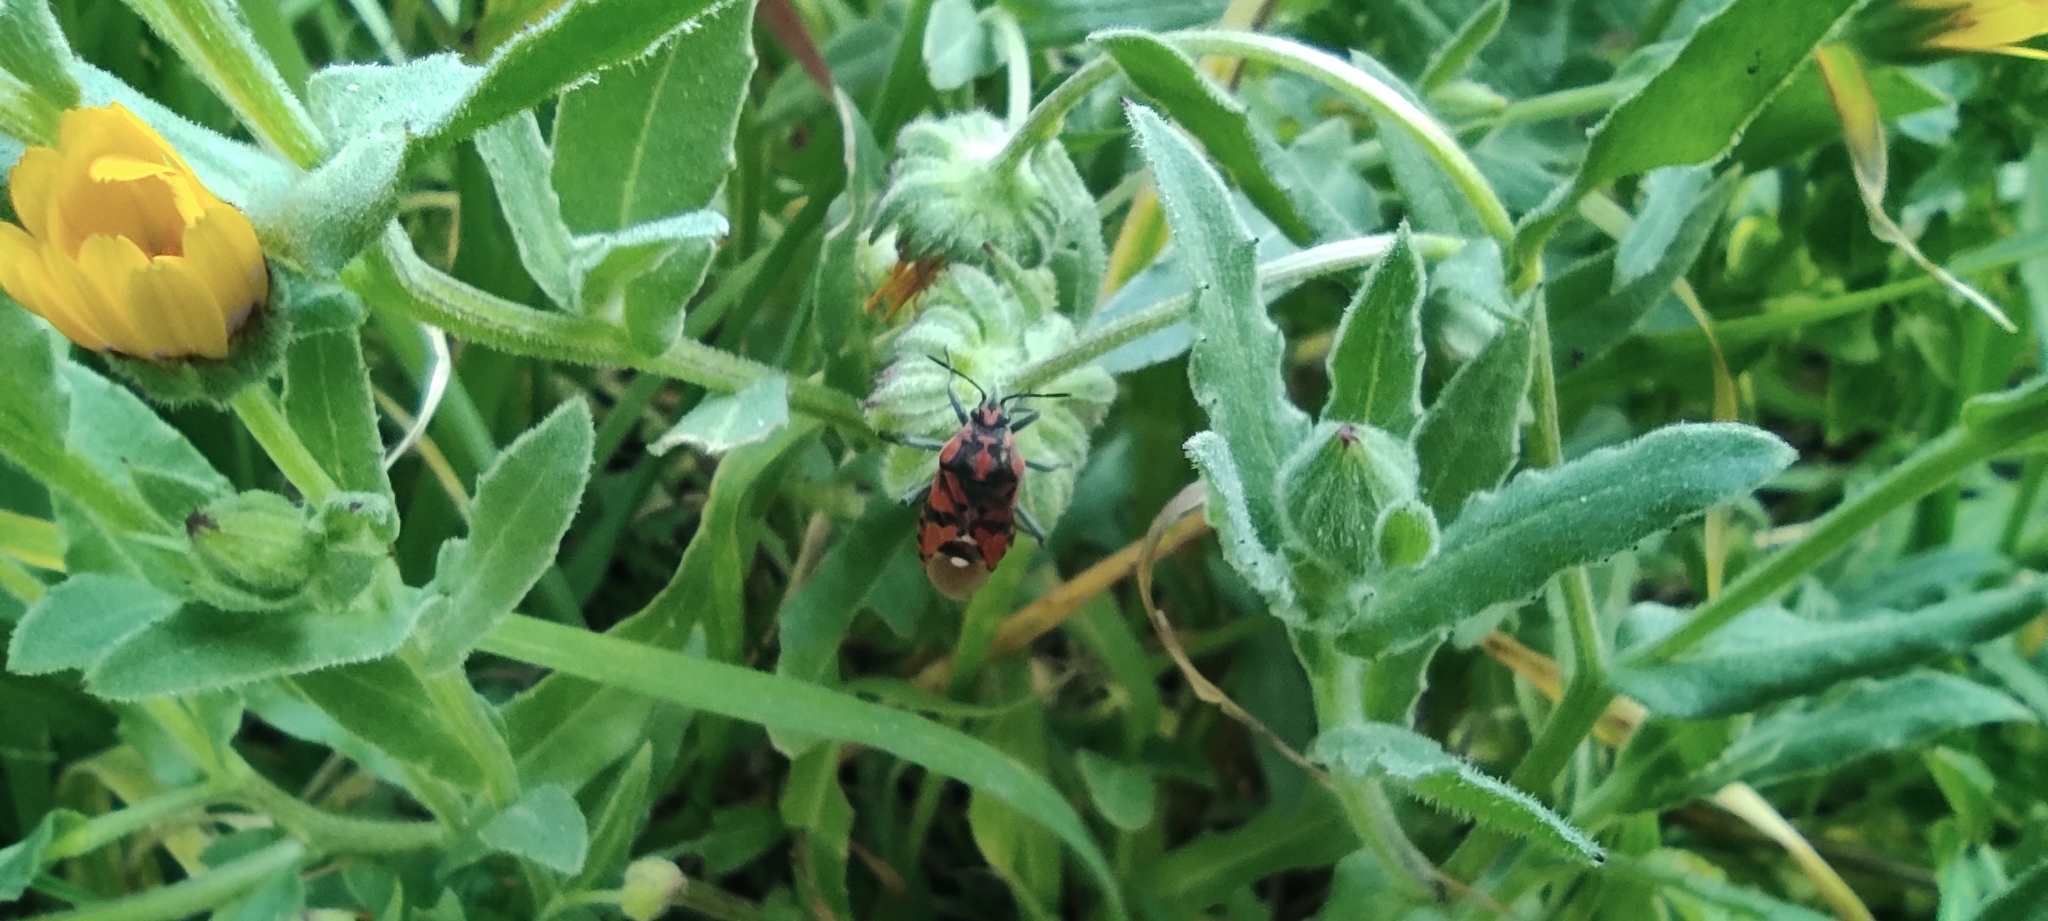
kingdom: Animalia
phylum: Arthropoda
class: Insecta
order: Hemiptera
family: Lygaeidae
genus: Spilostethus
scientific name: Spilostethus pandurus
